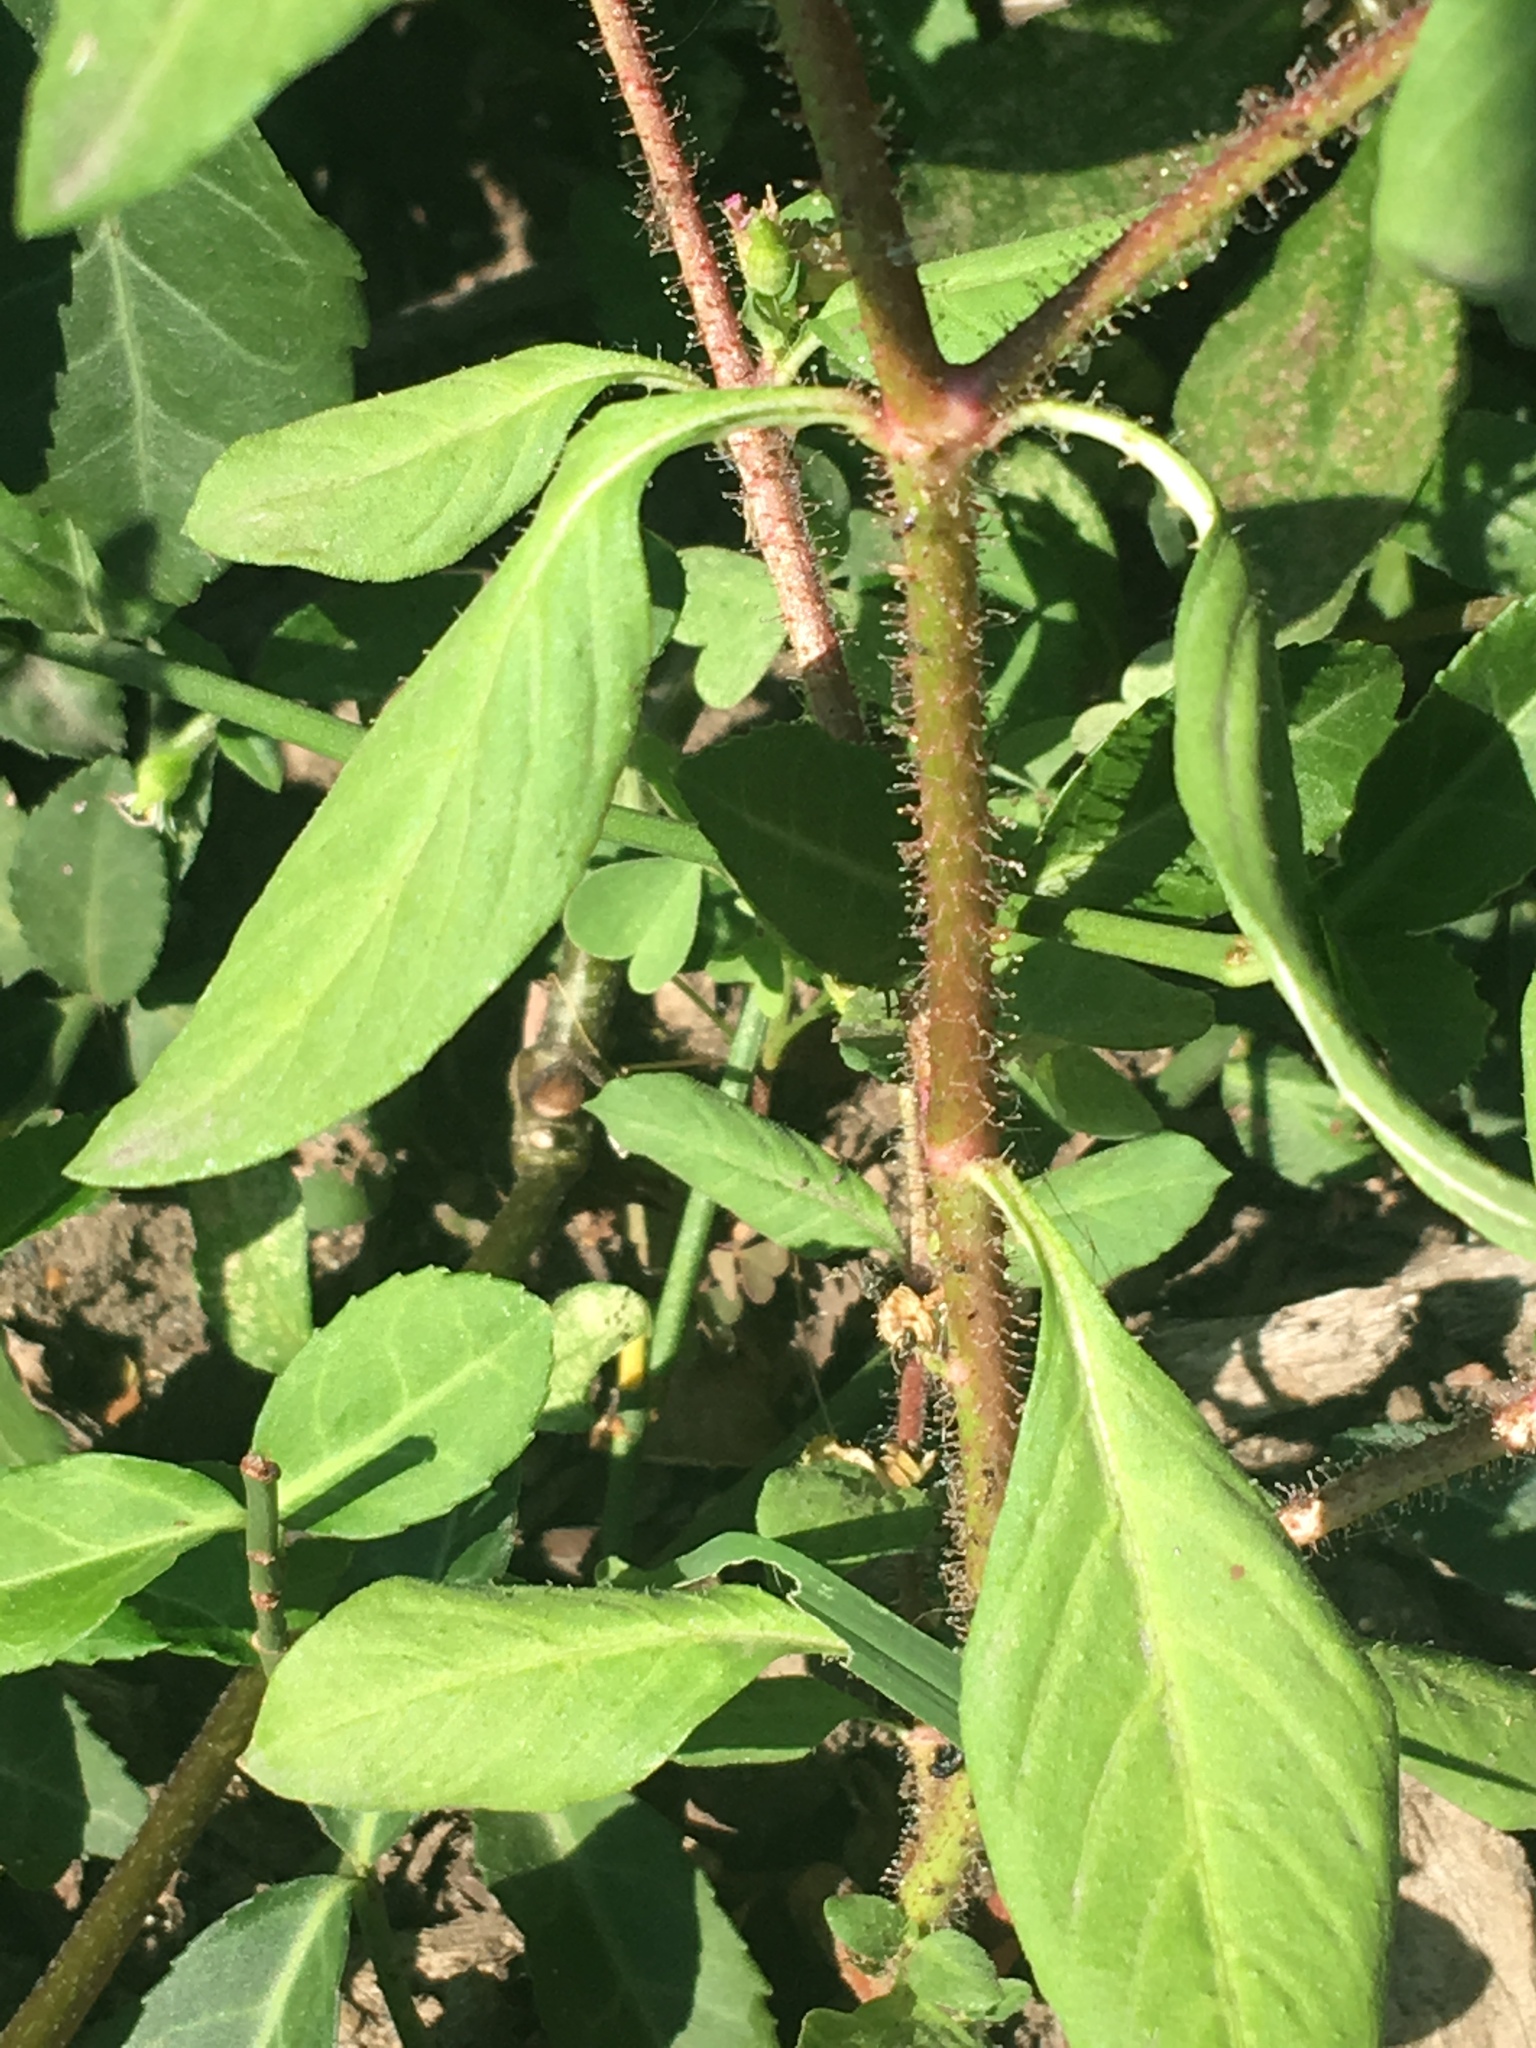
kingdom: Plantae
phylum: Tracheophyta
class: Magnoliopsida
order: Myrtales
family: Lythraceae
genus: Cuphea
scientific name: Cuphea carthagenensis
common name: Colombian waxweed
